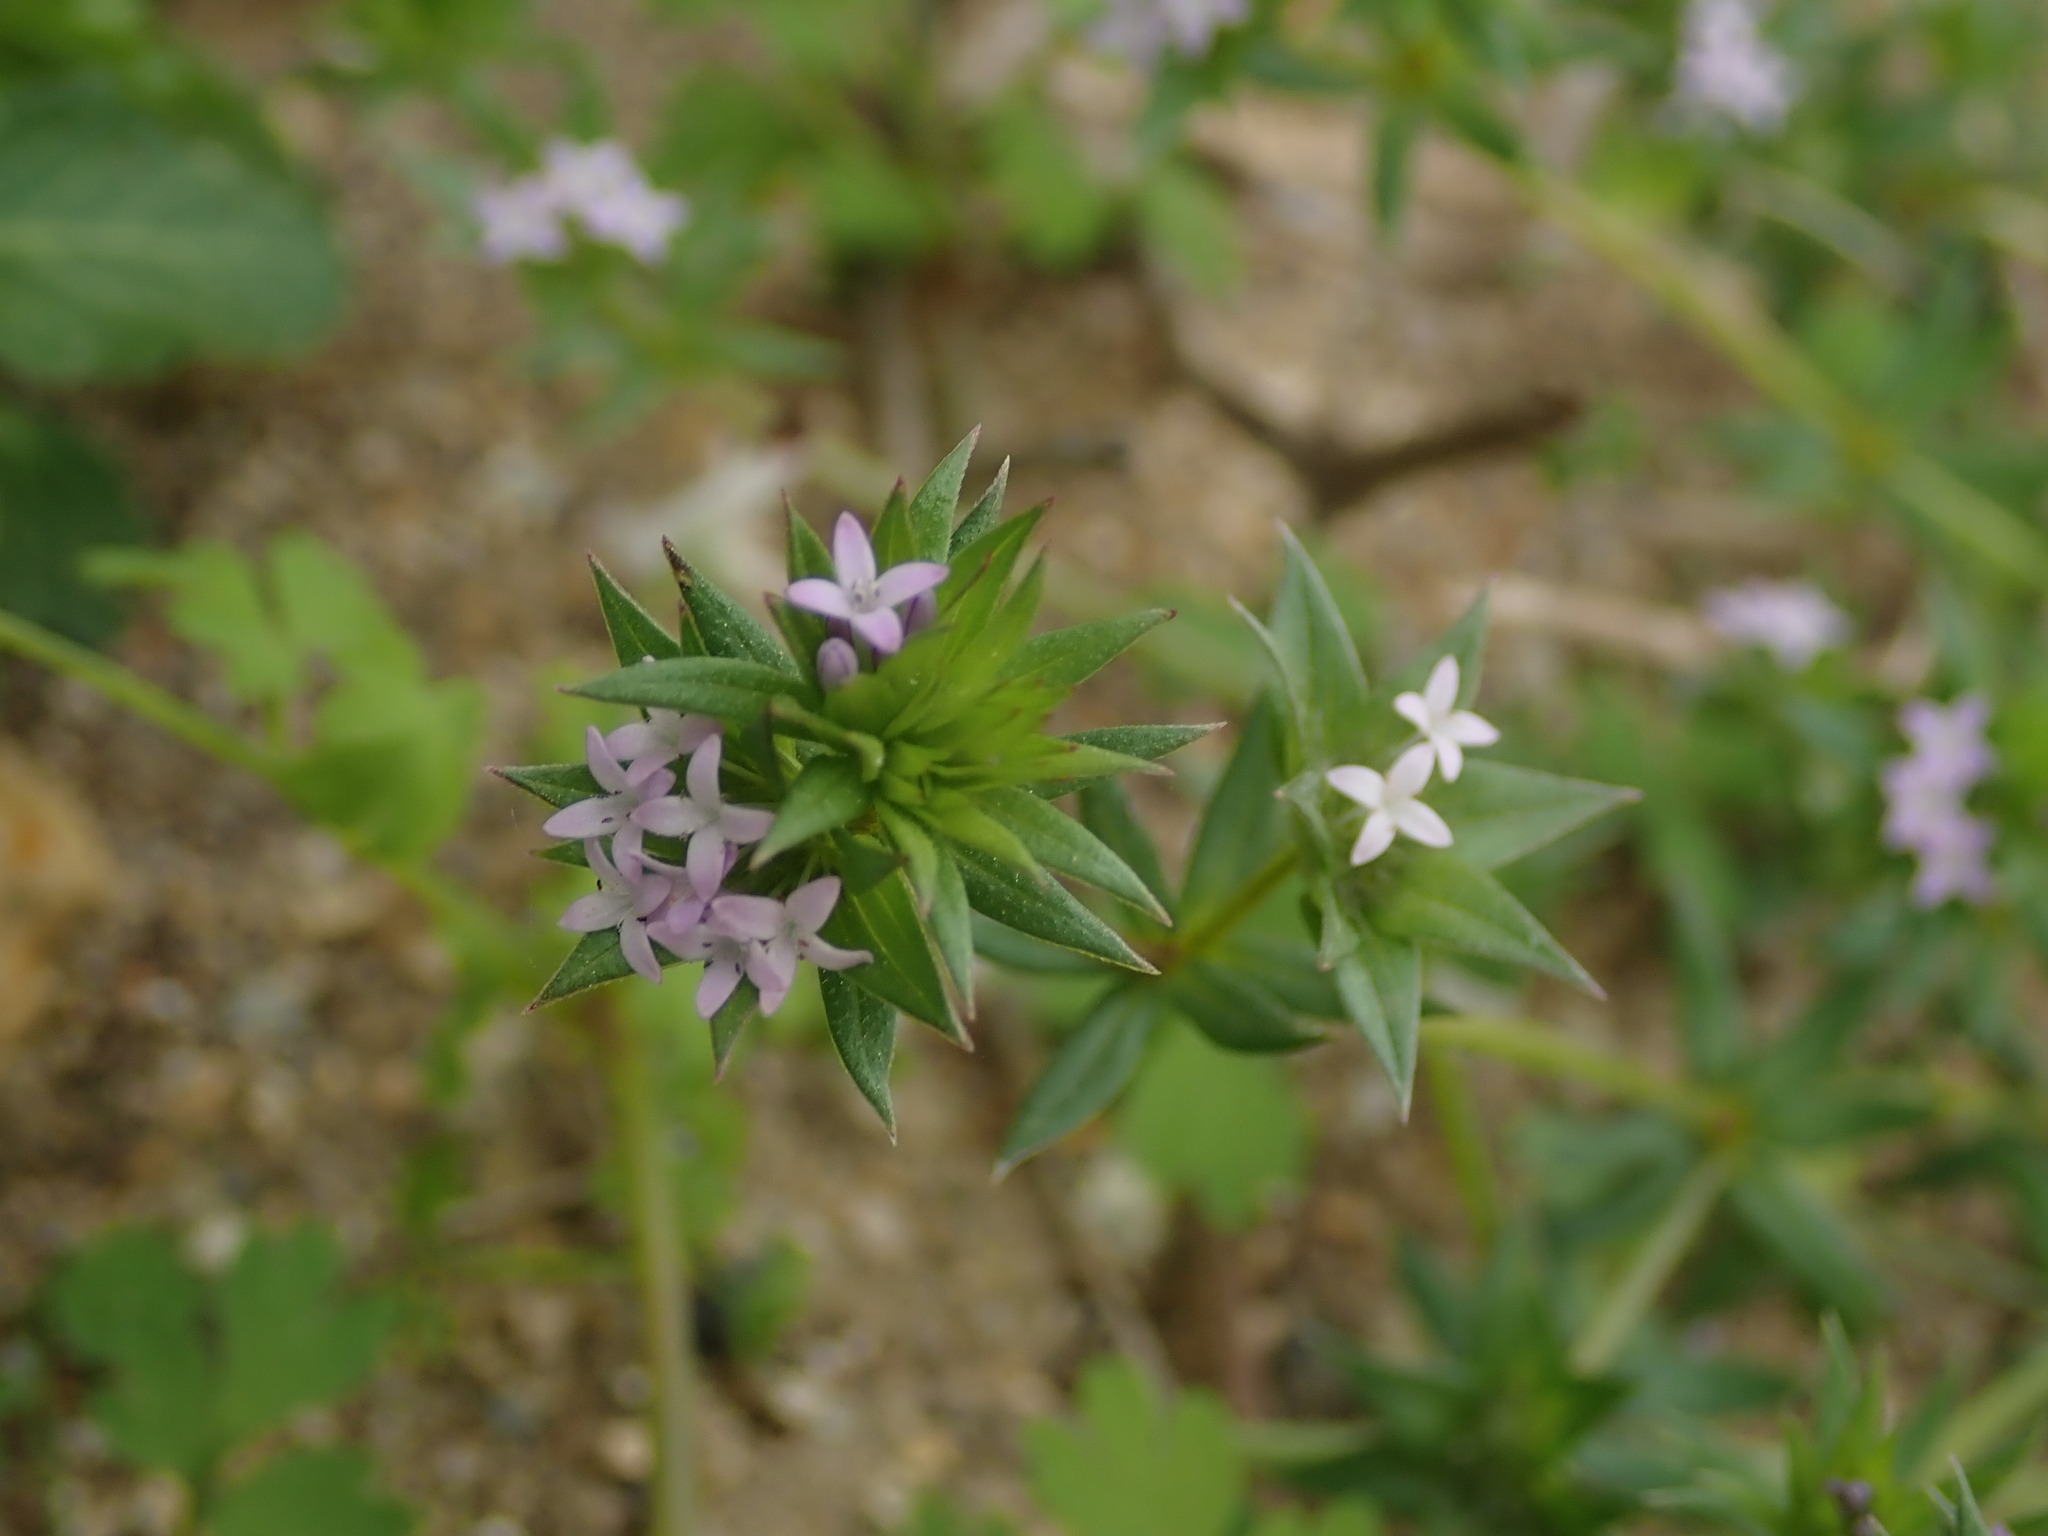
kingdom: Plantae
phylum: Tracheophyta
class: Magnoliopsida
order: Gentianales
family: Rubiaceae
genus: Sherardia
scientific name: Sherardia arvensis
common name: Field madder
